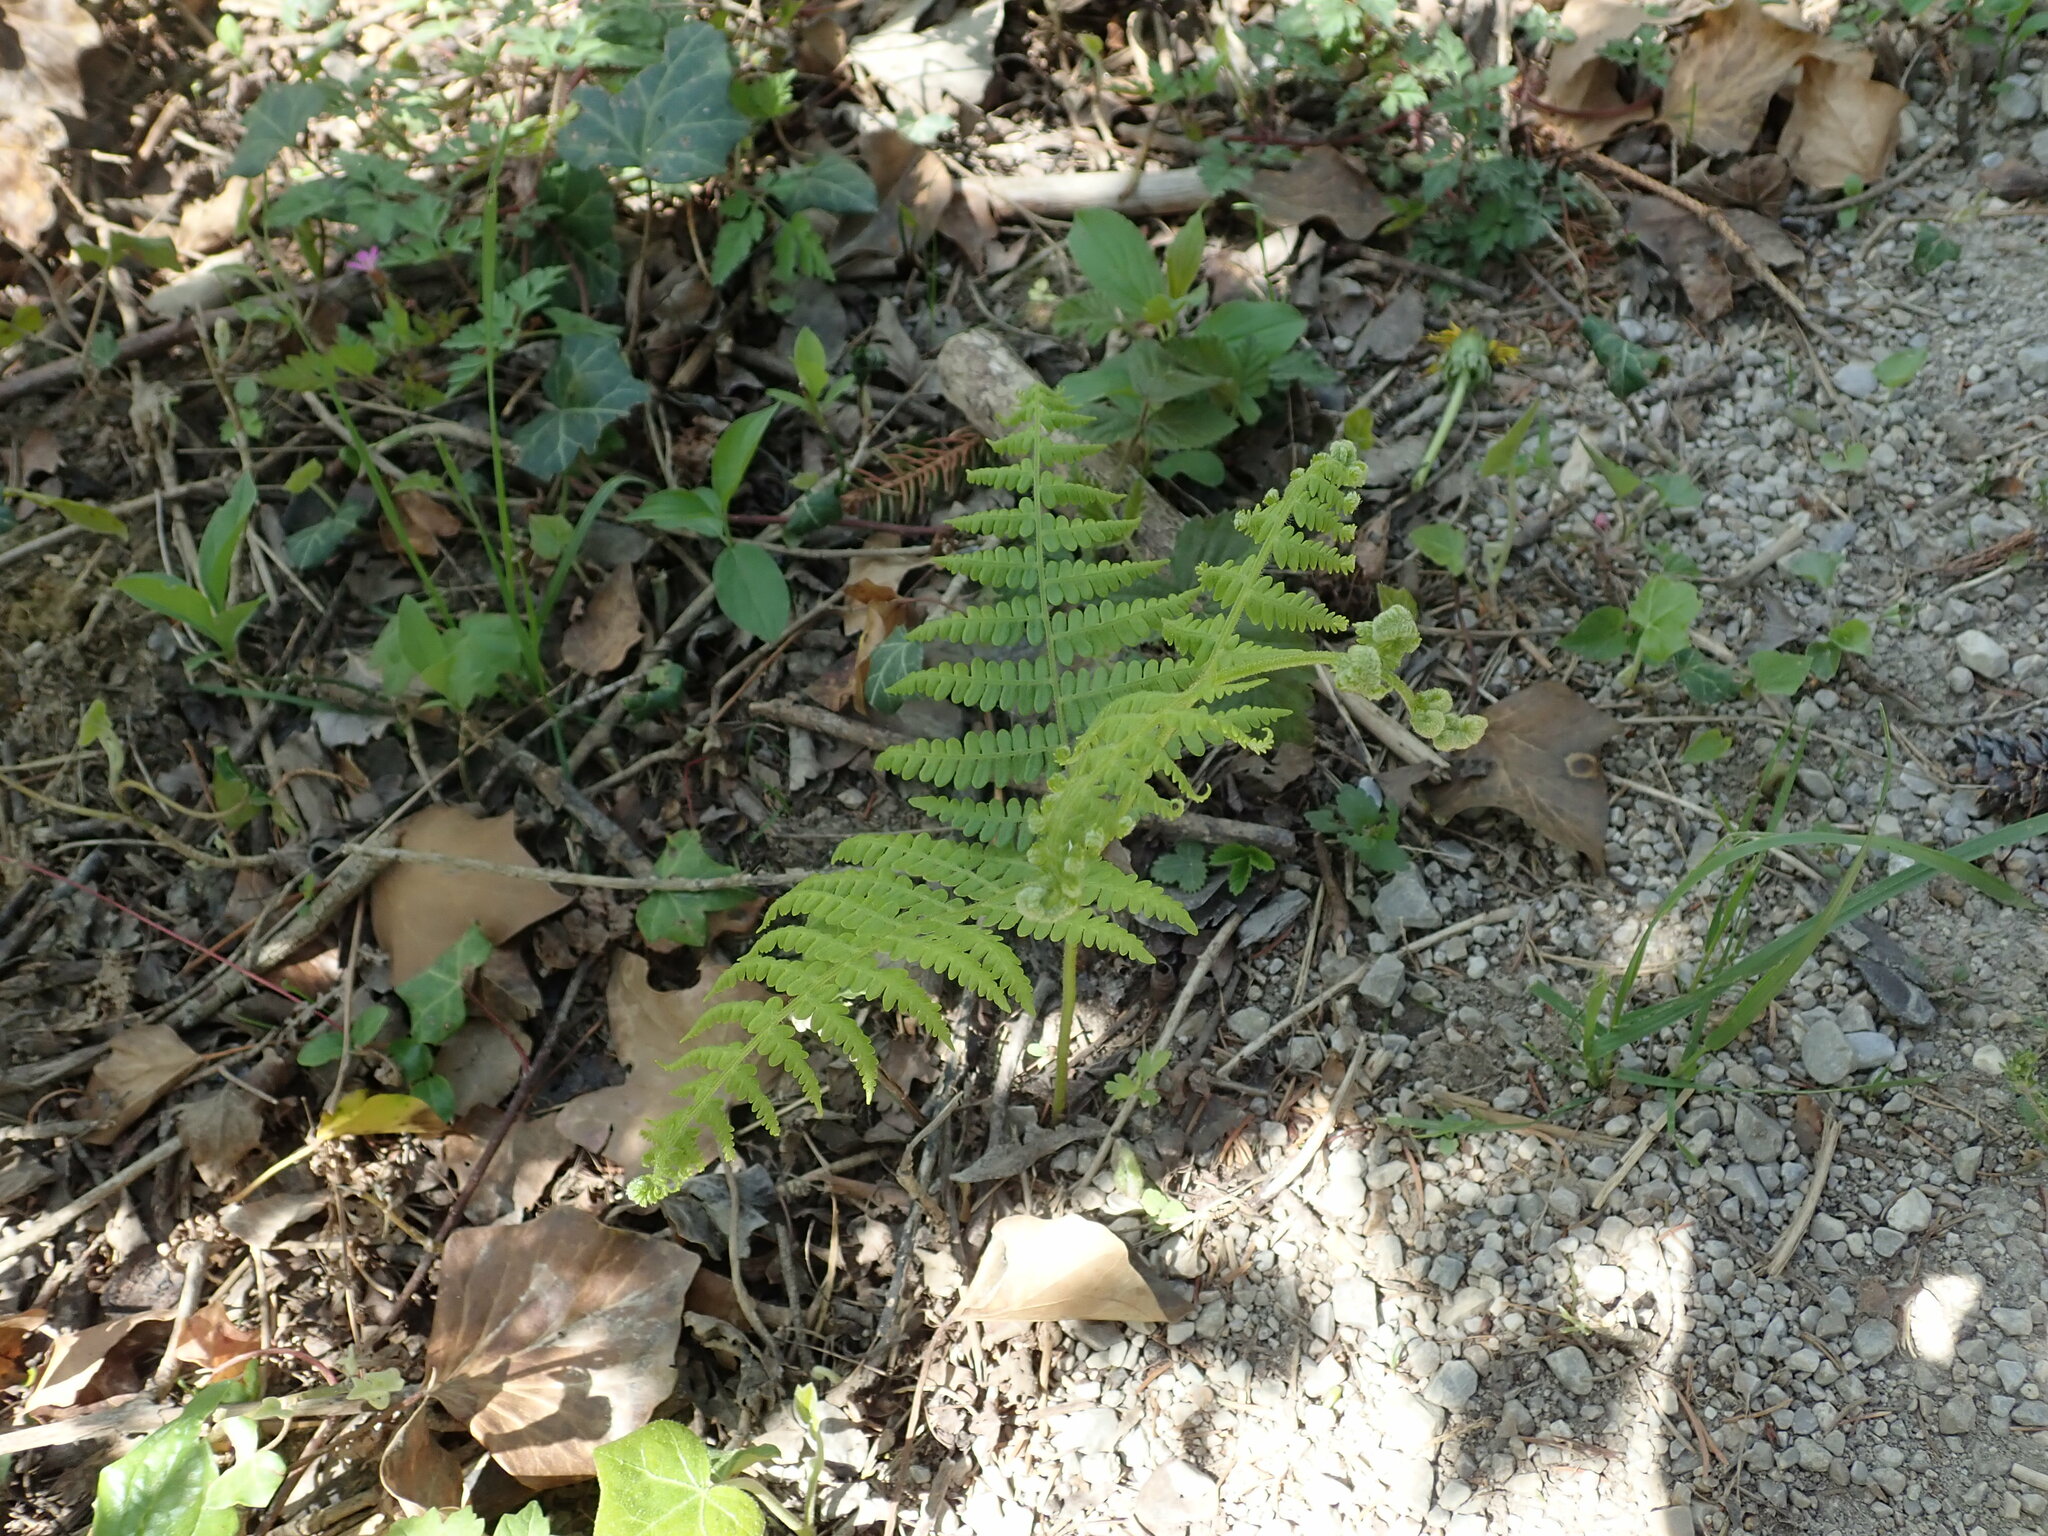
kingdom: Plantae
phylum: Tracheophyta
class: Polypodiopsida
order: Polypodiales
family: Dennstaedtiaceae
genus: Pteridium
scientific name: Pteridium aquilinum
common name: Bracken
